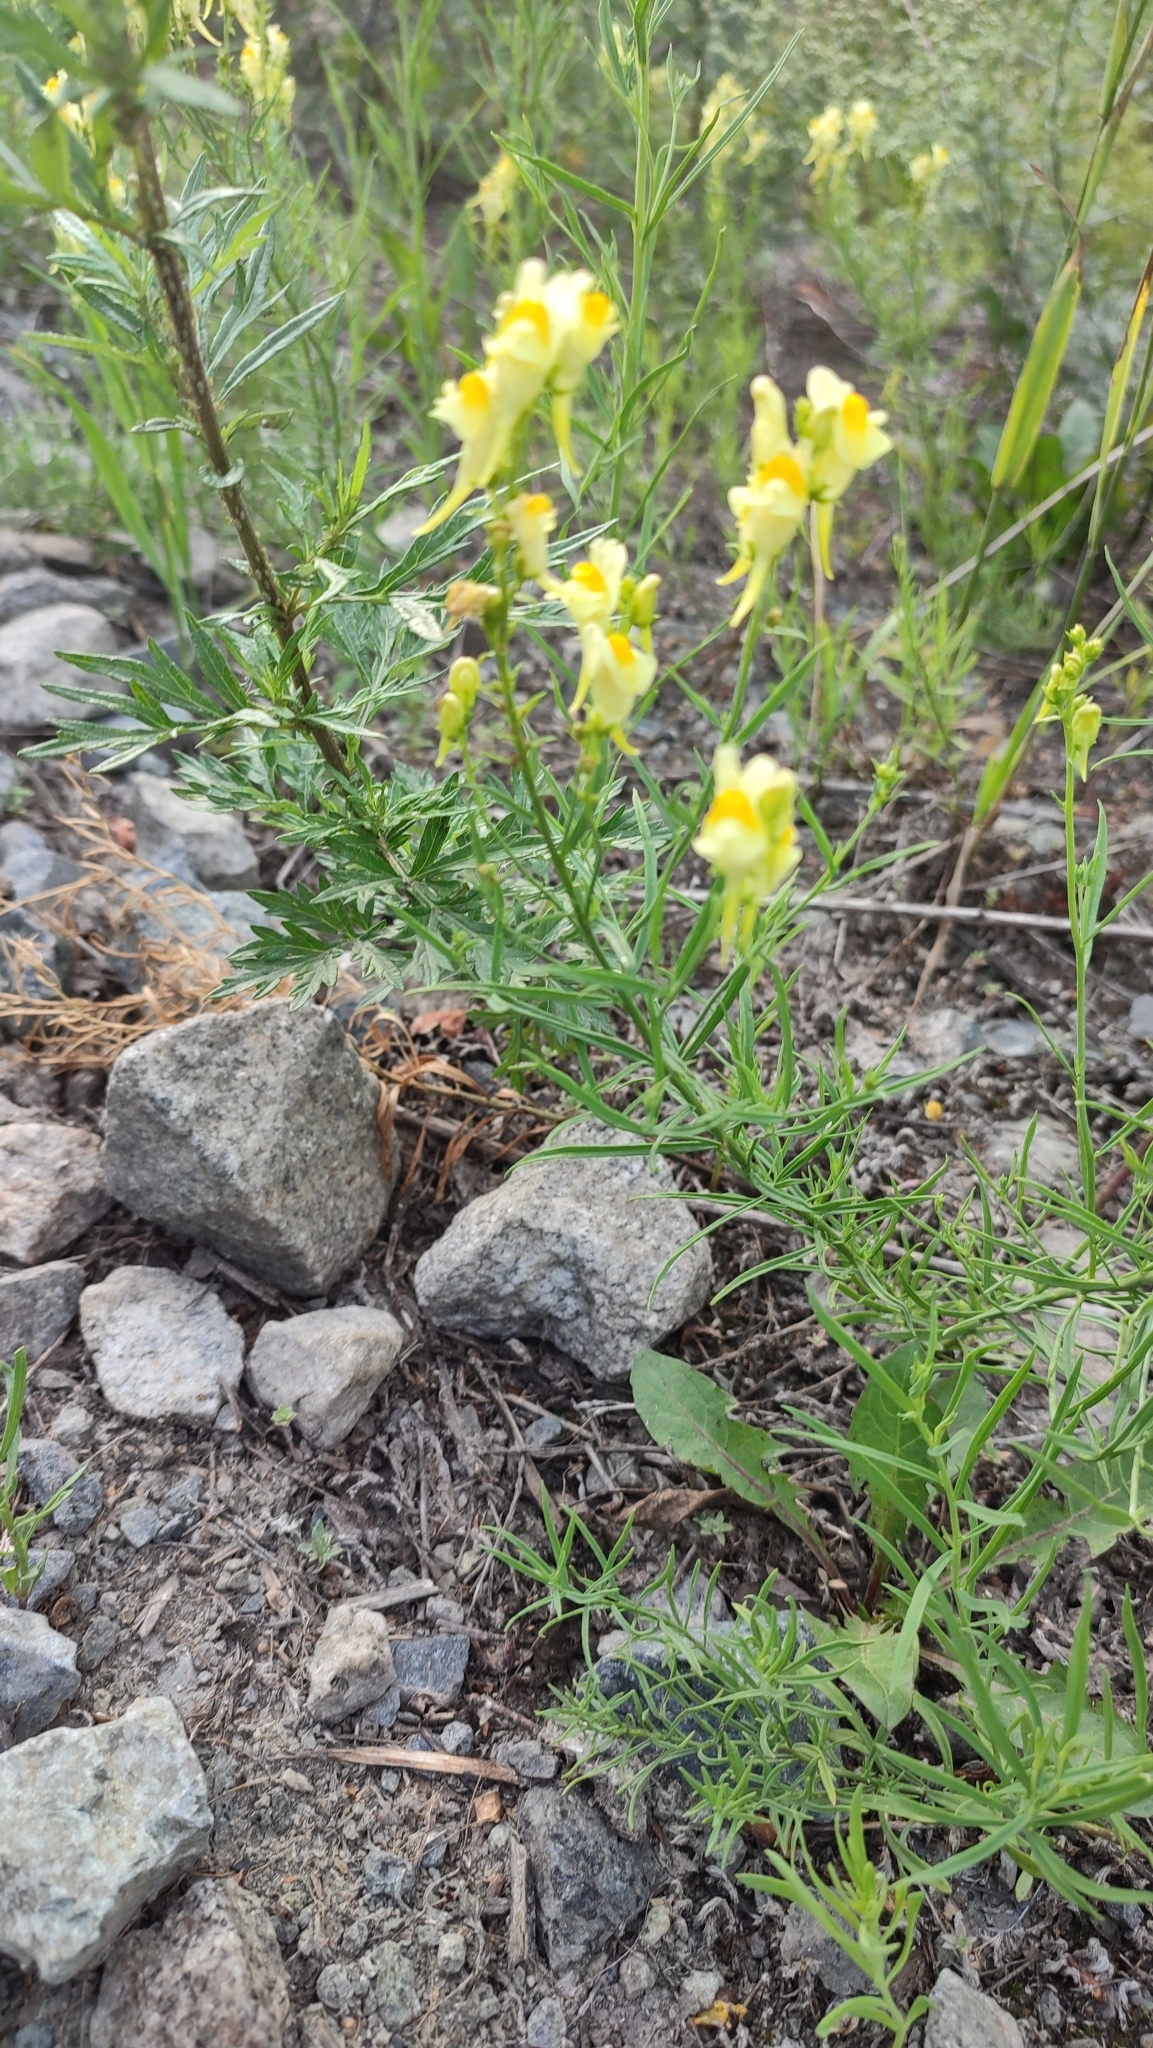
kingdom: Plantae
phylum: Tracheophyta
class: Magnoliopsida
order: Lamiales
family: Plantaginaceae
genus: Linaria
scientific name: Linaria vulgaris
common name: Butter and eggs
